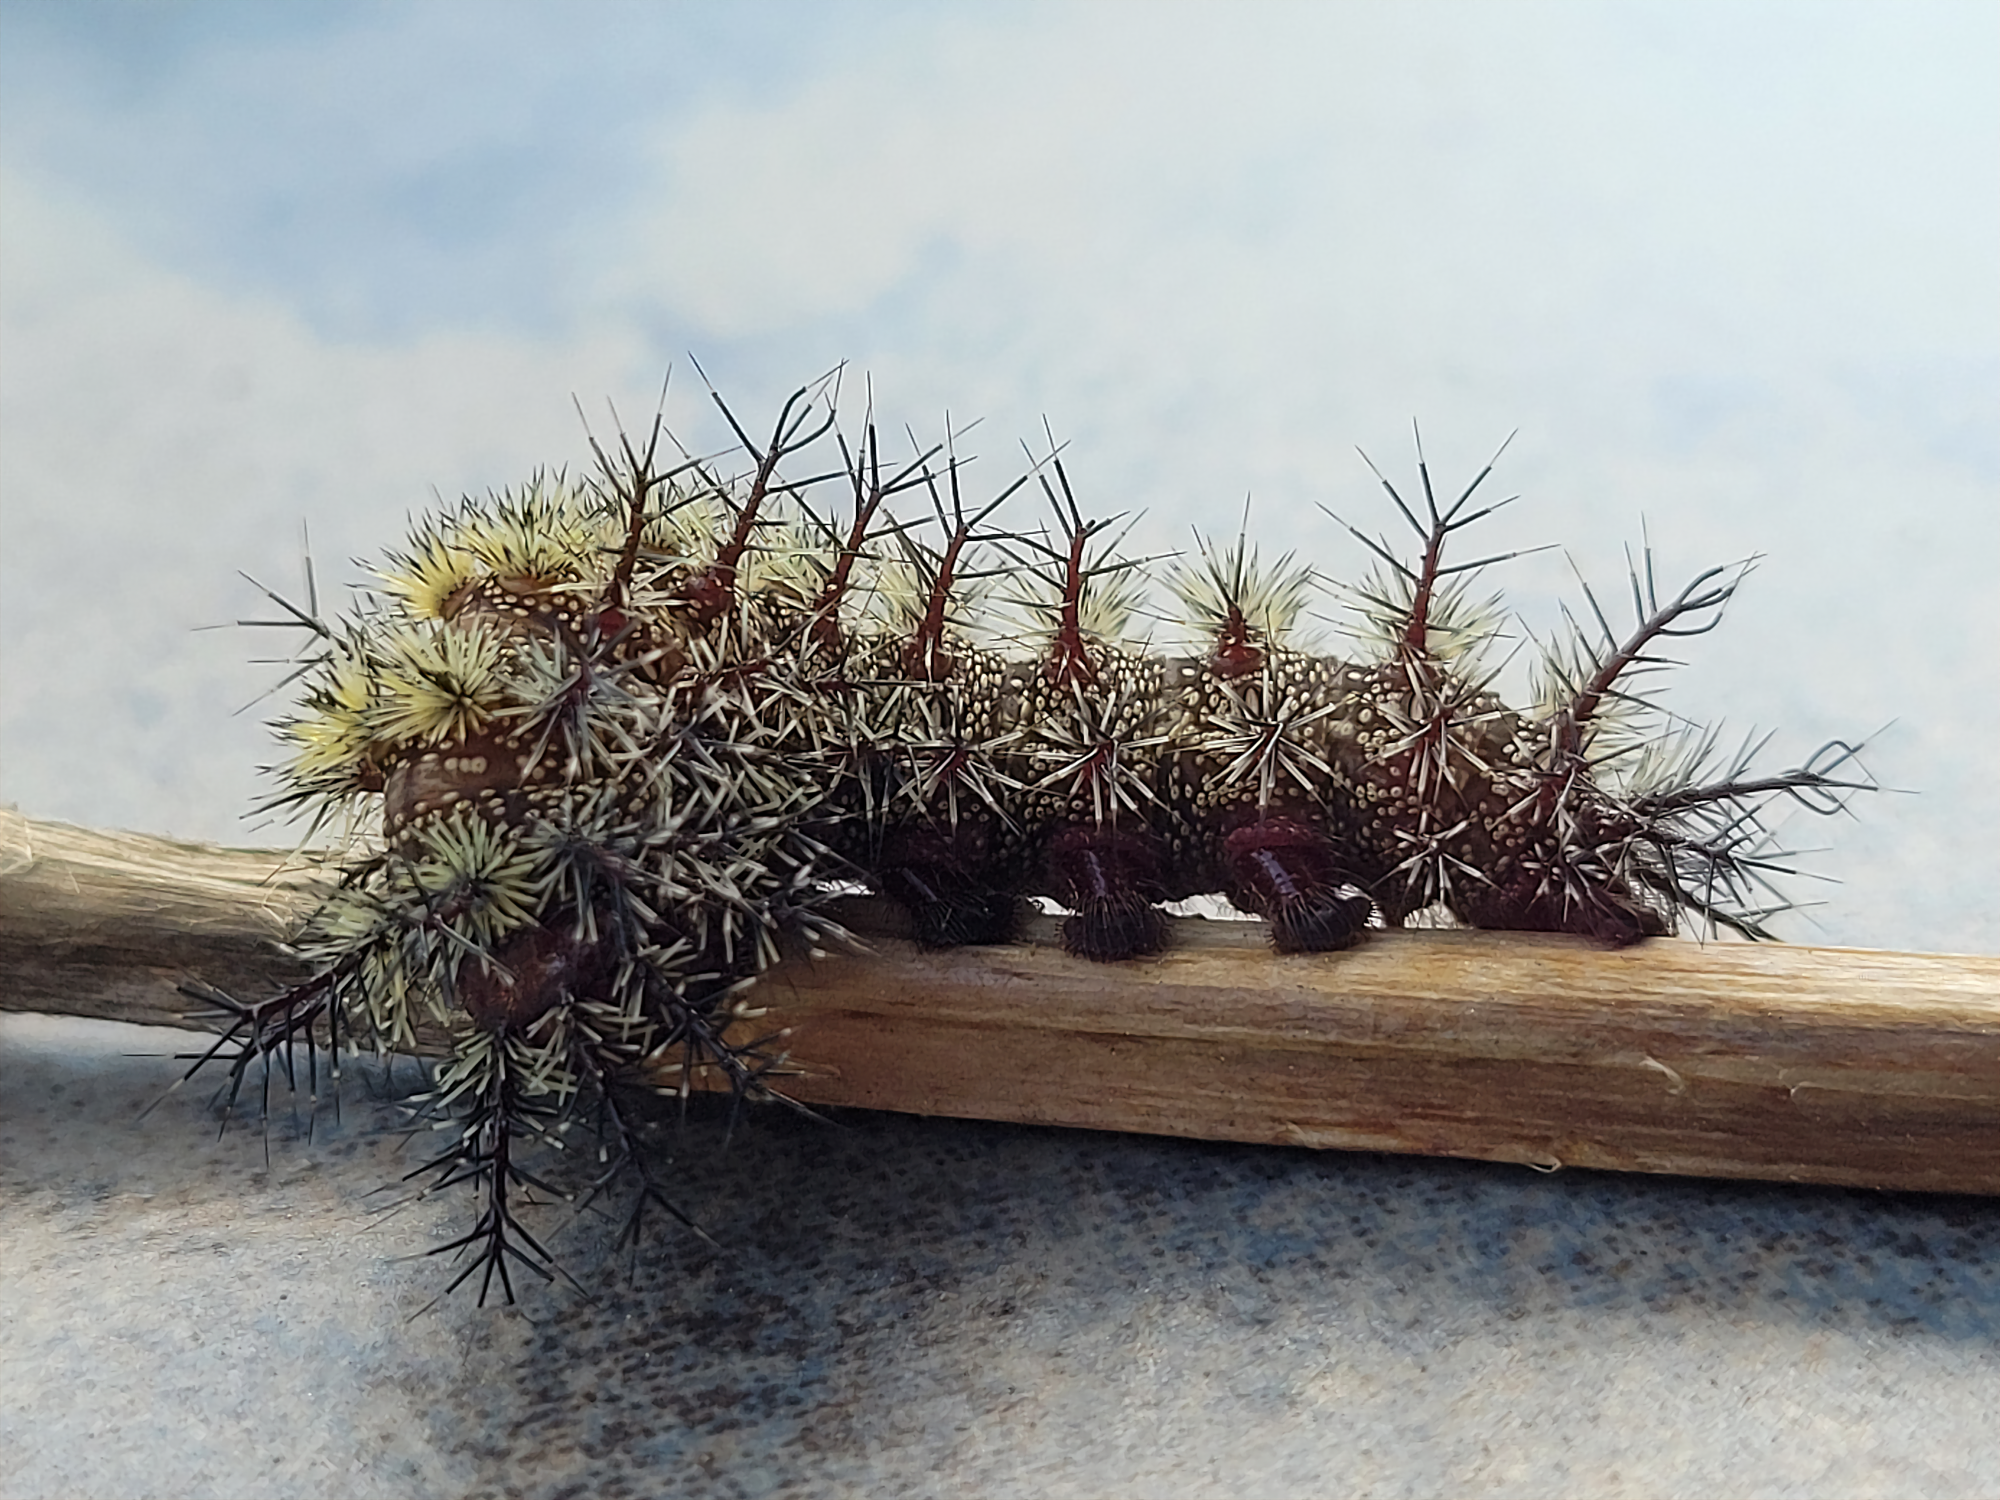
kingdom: Animalia
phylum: Arthropoda
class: Insecta
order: Lepidoptera
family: Saturniidae
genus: Hemileuca
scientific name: Hemileuca maia
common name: Eastern buckmoth
